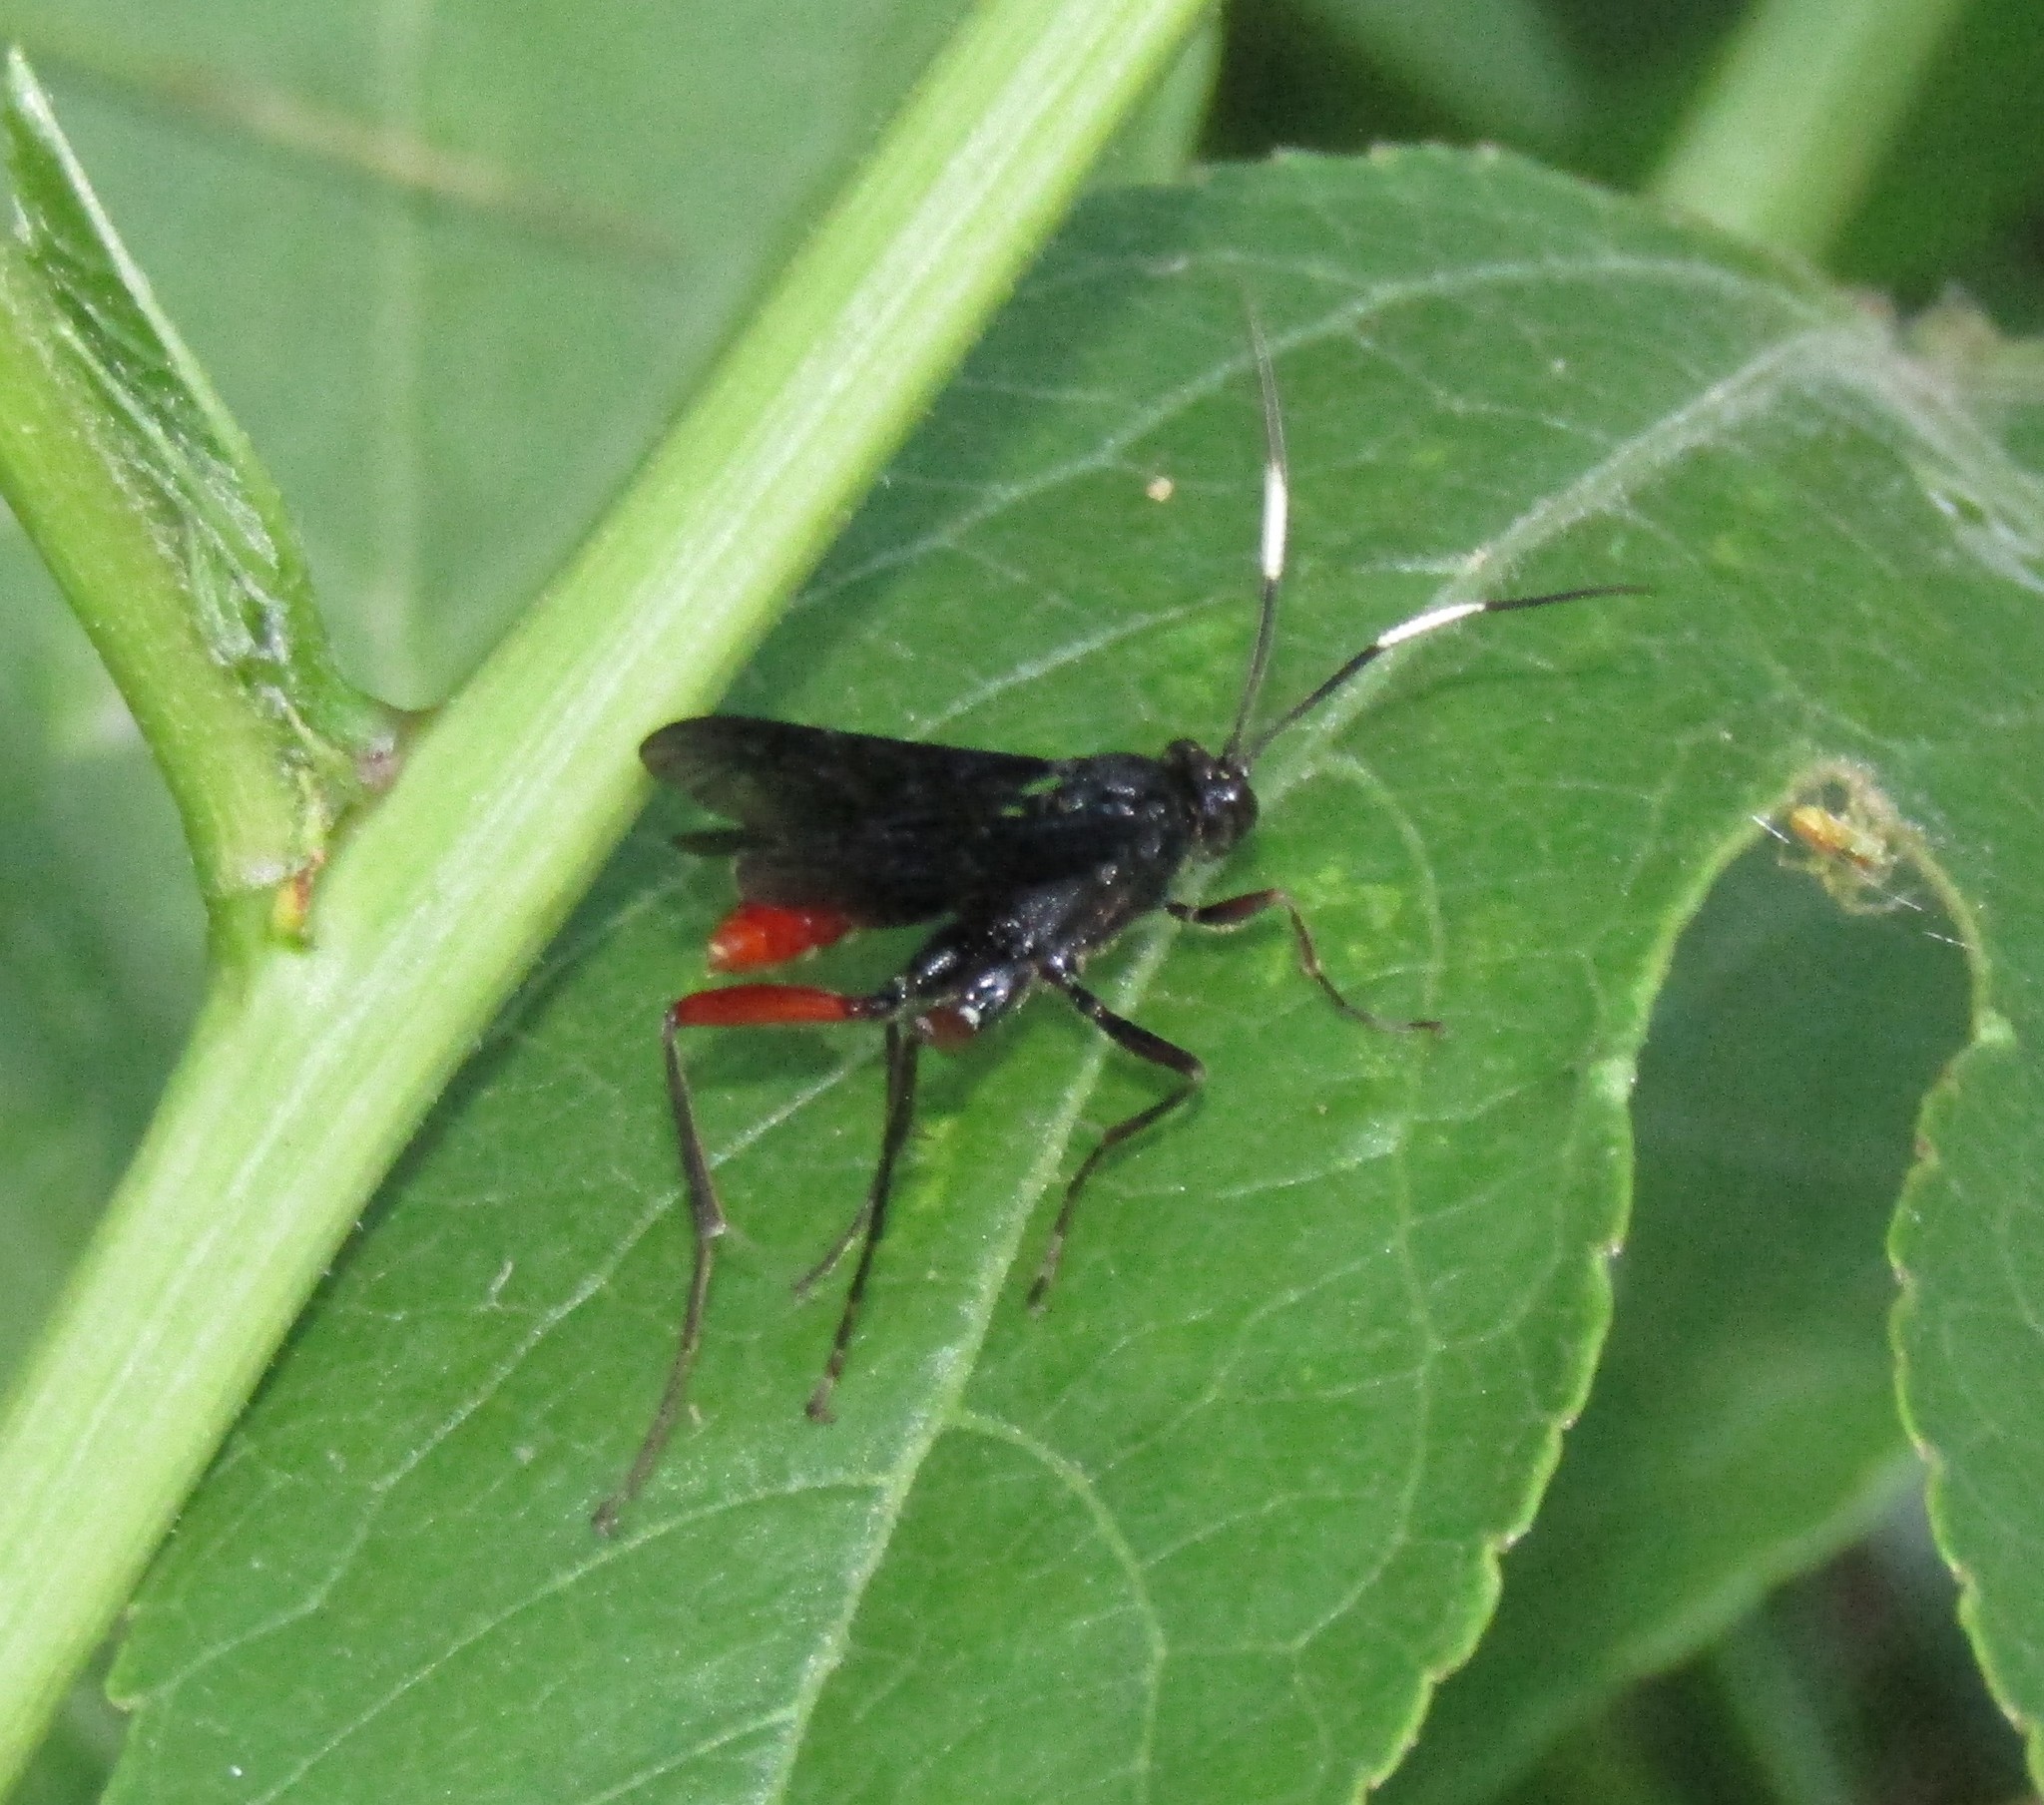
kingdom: Animalia
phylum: Arthropoda
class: Insecta
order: Hymenoptera
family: Ichneumonidae
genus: Limonethe
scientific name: Limonethe maurator
